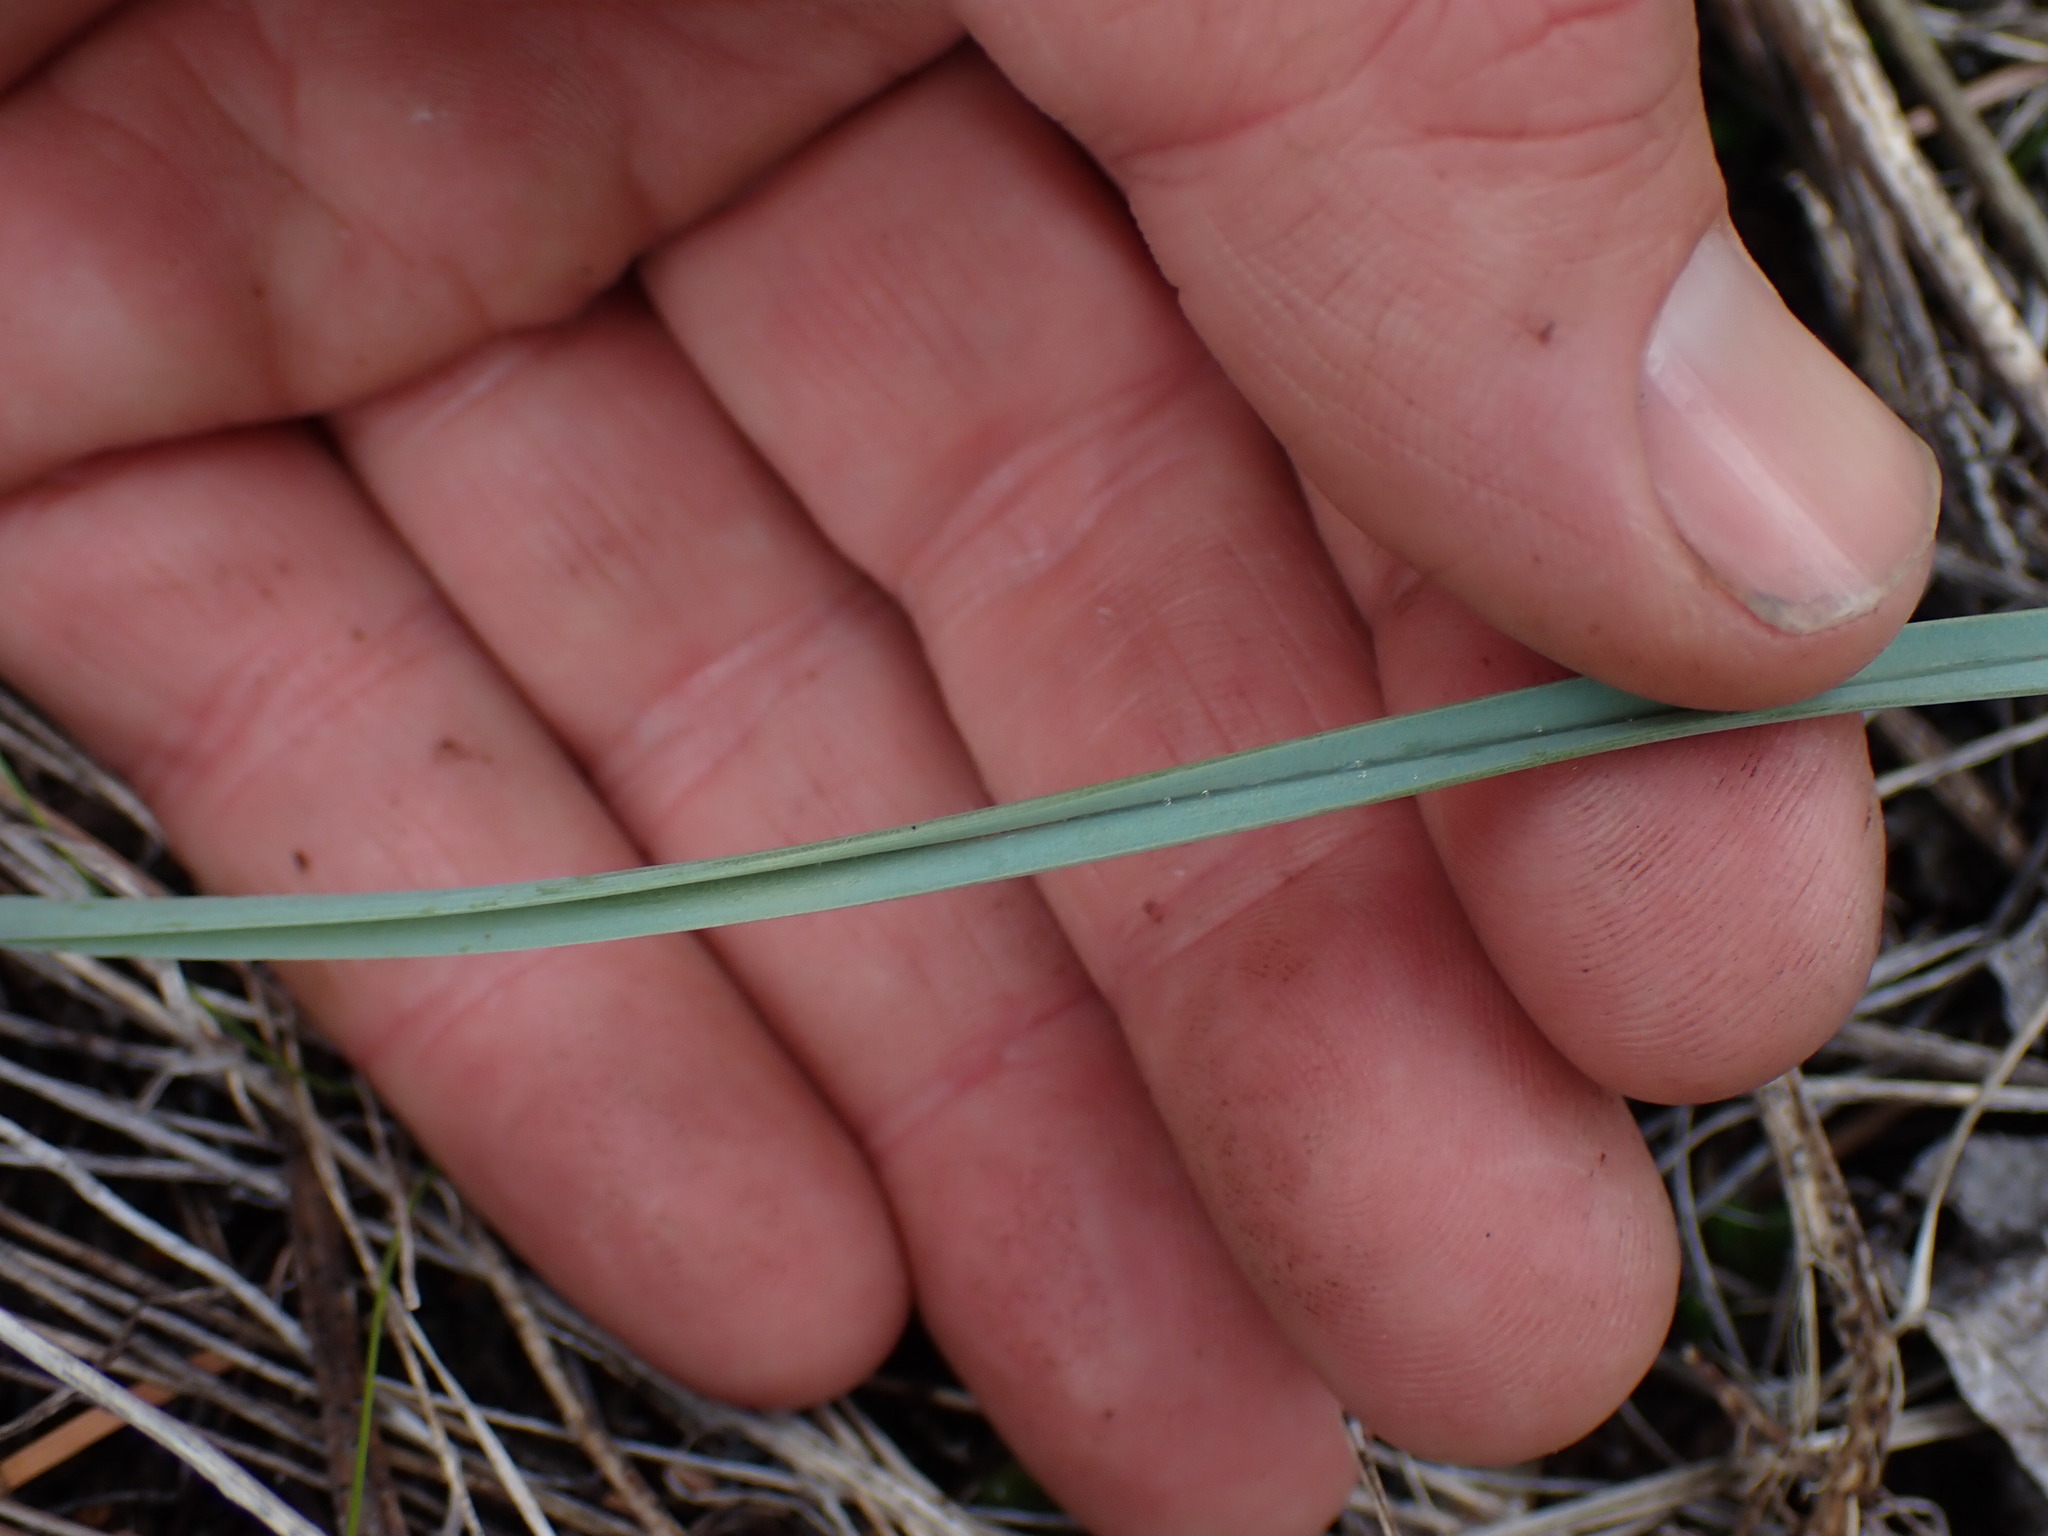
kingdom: Plantae
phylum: Tracheophyta
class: Liliopsida
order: Liliales
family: Liliaceae
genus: Calochortus
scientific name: Calochortus macrocarpus
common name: Green-band mariposa lily
